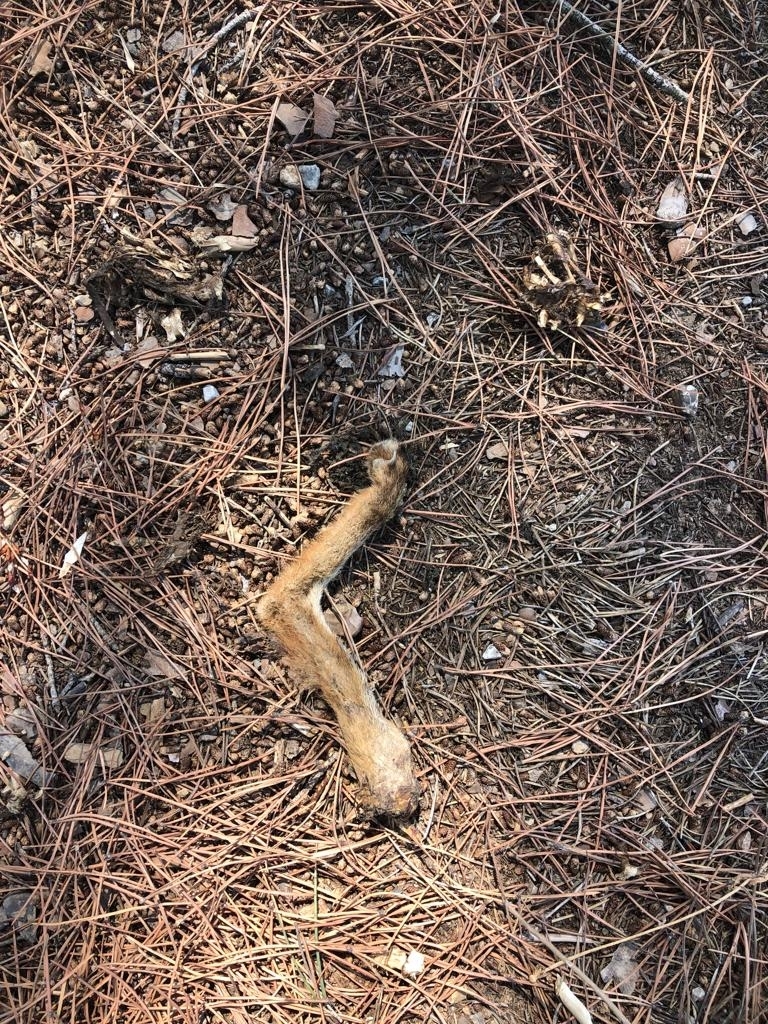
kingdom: Animalia
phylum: Chordata
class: Mammalia
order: Carnivora
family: Canidae
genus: Vulpes
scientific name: Vulpes vulpes
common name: Red fox
